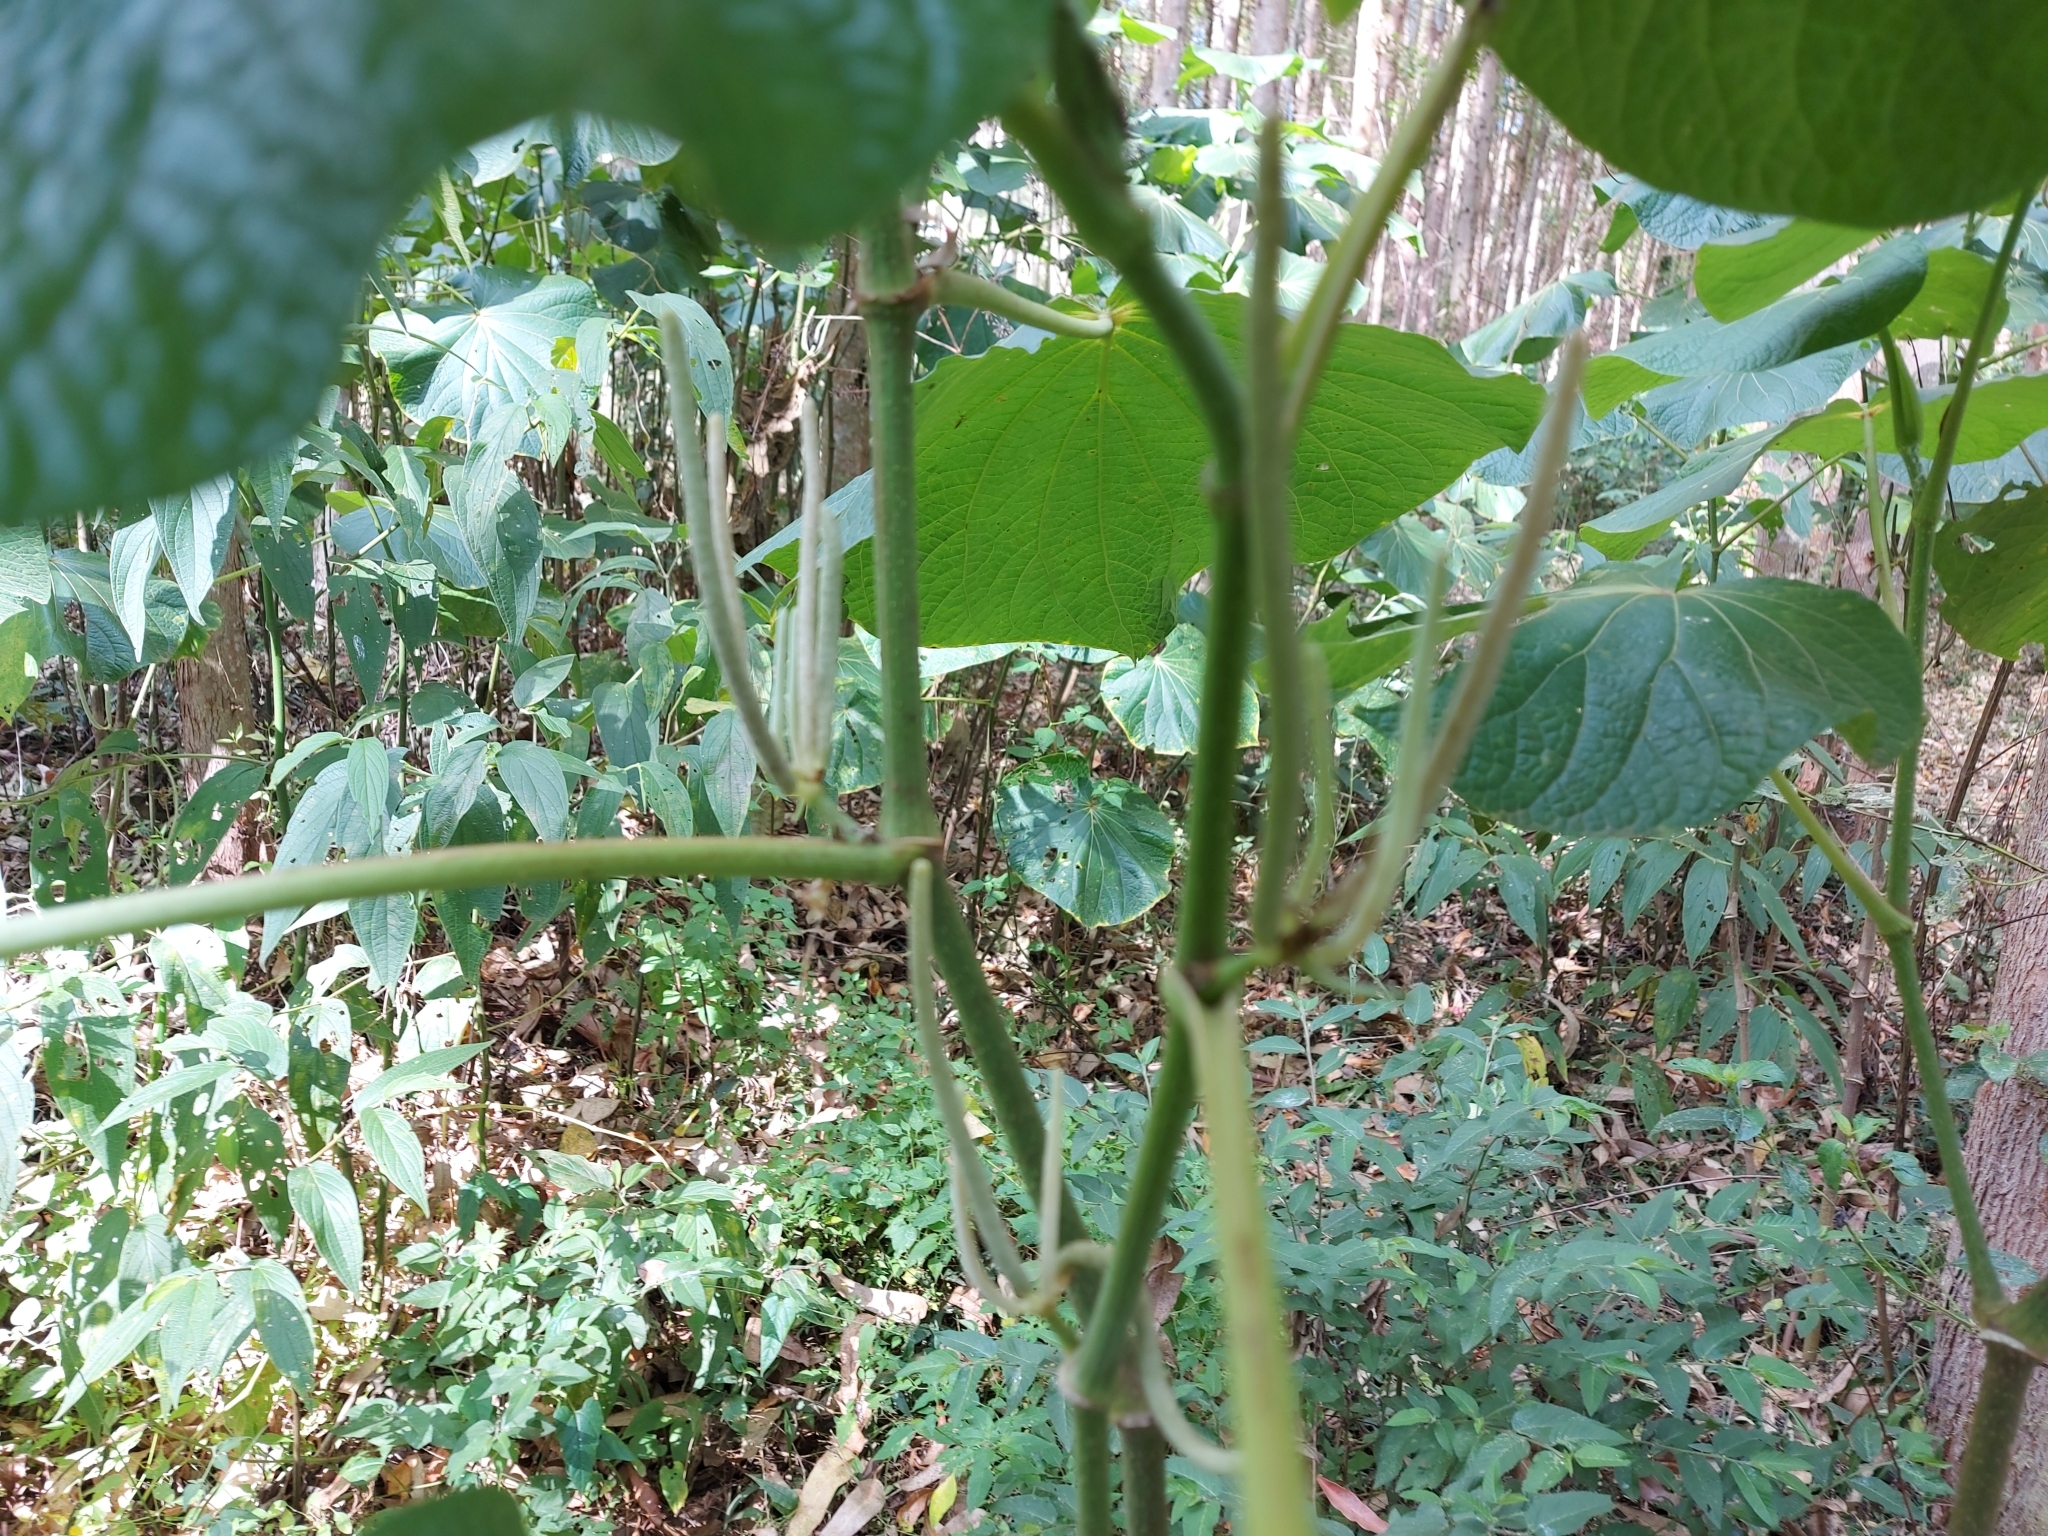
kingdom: Plantae
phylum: Tracheophyta
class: Magnoliopsida
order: Piperales
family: Piperaceae
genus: Piper
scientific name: Piper umbellatum
